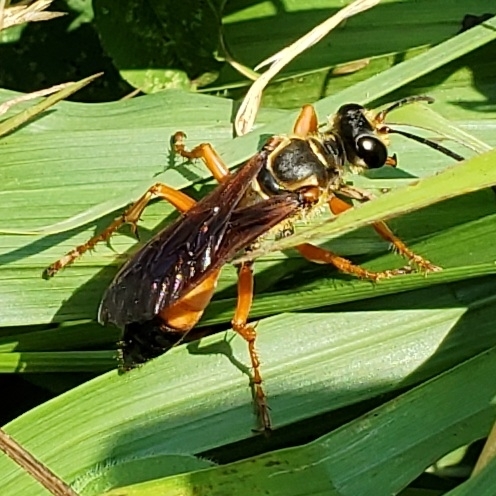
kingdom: Animalia
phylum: Arthropoda
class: Insecta
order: Hymenoptera
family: Sphecidae
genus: Sphex
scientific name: Sphex ichneumoneus
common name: Great golden digger wasp
